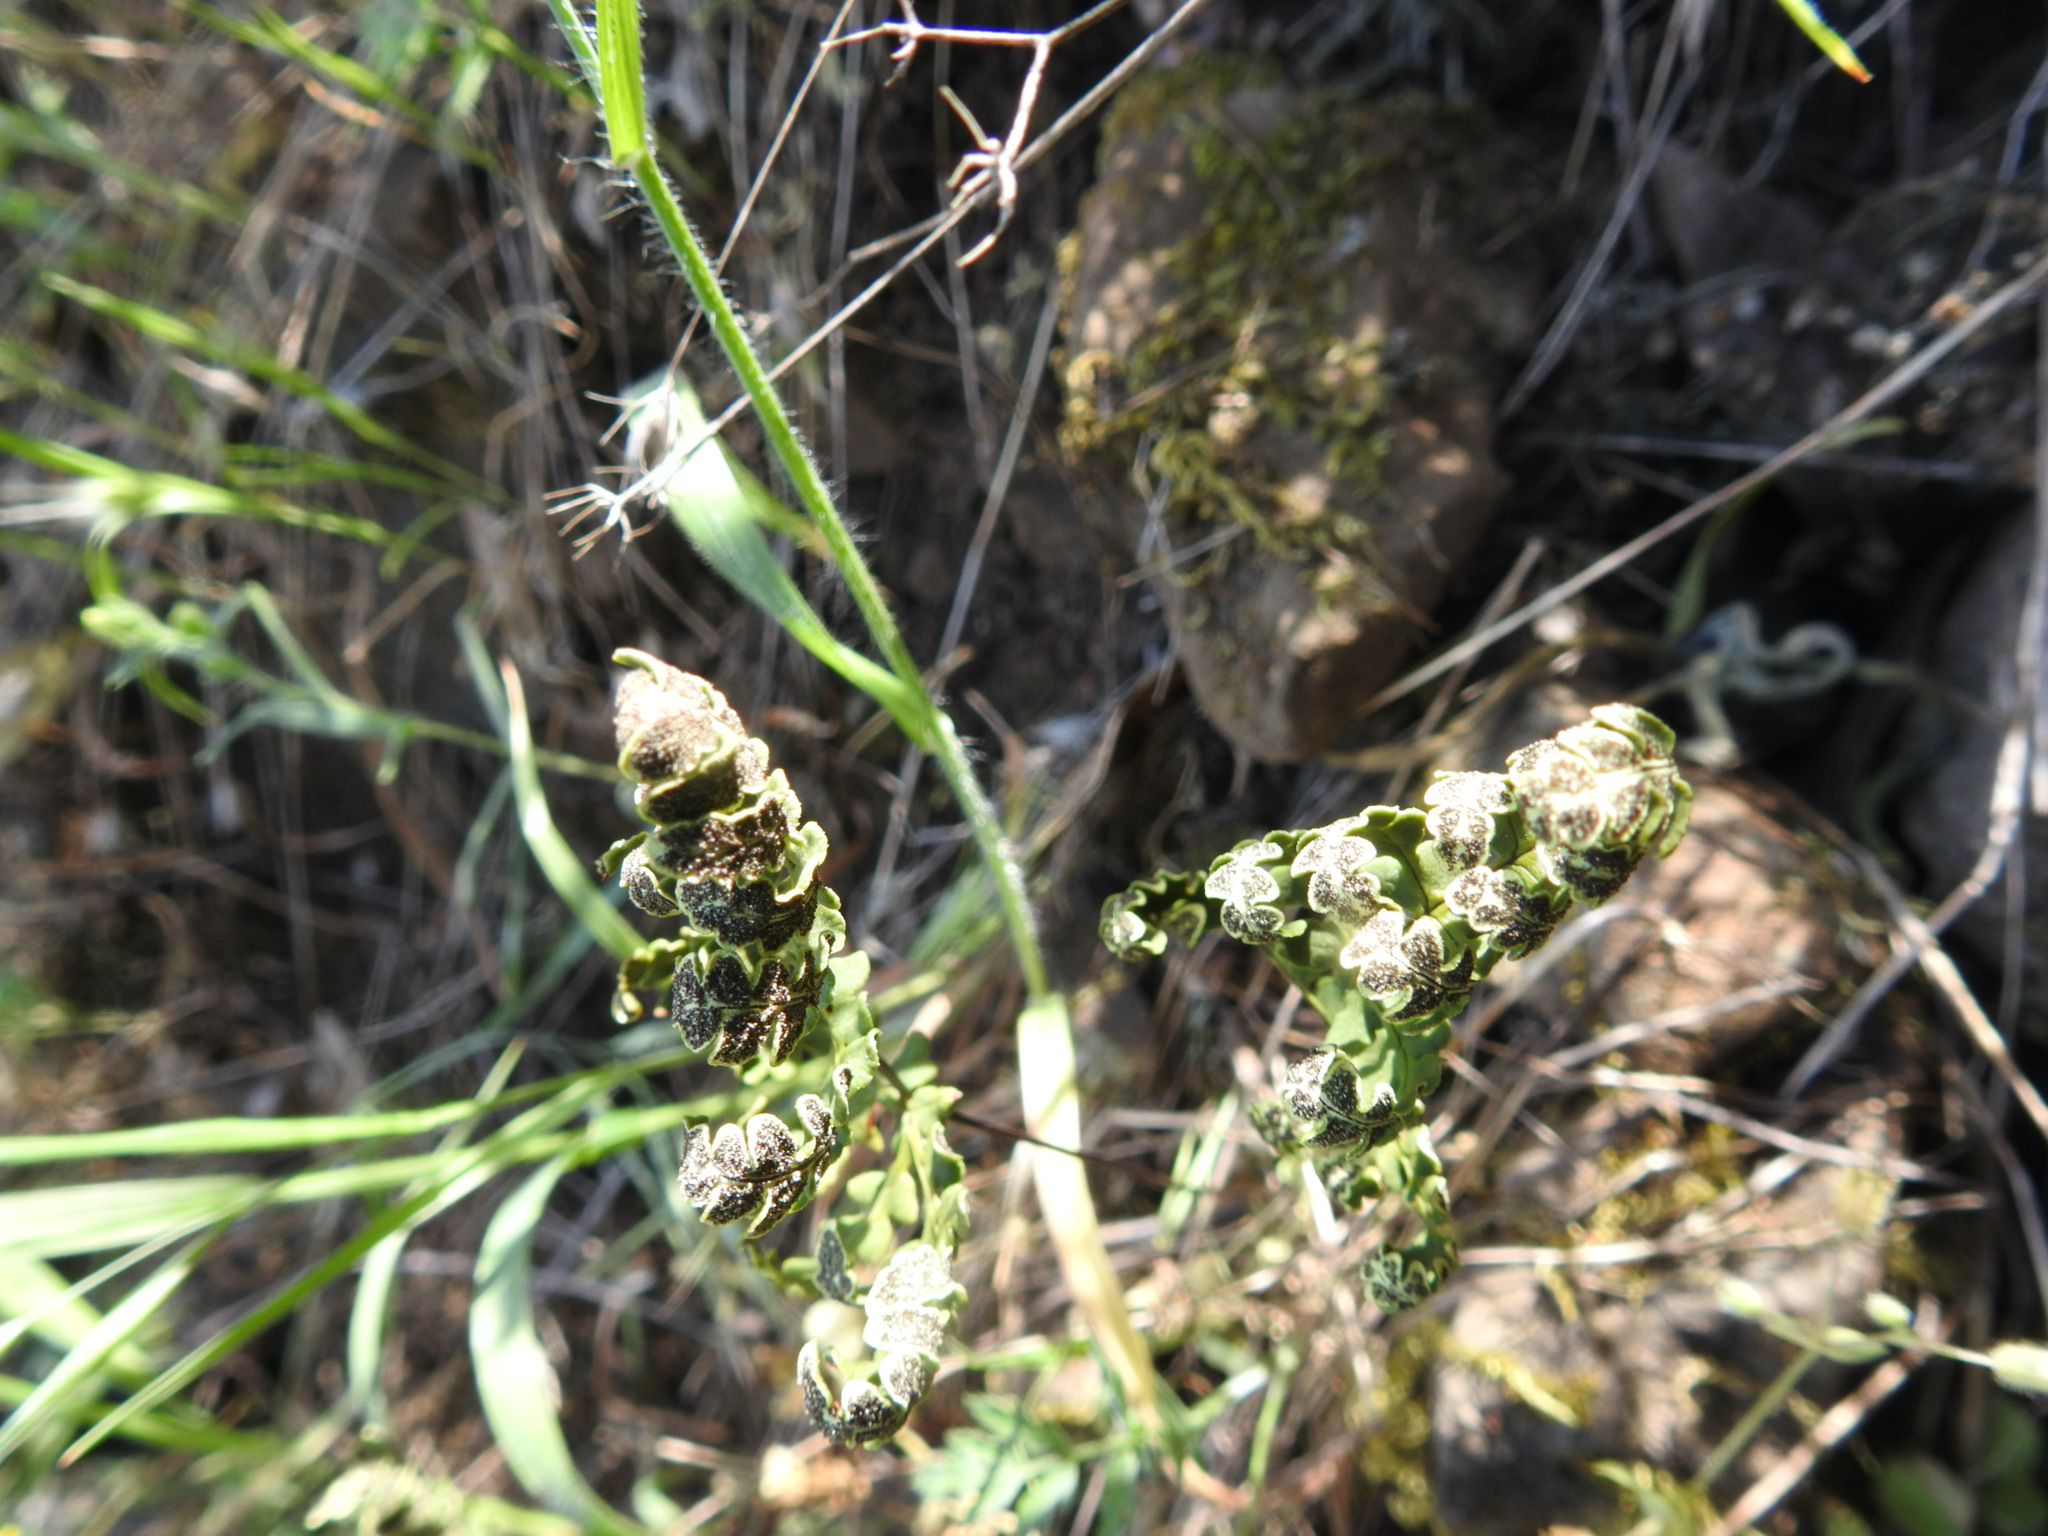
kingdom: Plantae
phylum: Tracheophyta
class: Polypodiopsida
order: Polypodiales
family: Pteridaceae
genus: Pentagramma
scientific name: Pentagramma triangularis
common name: Gold fern
